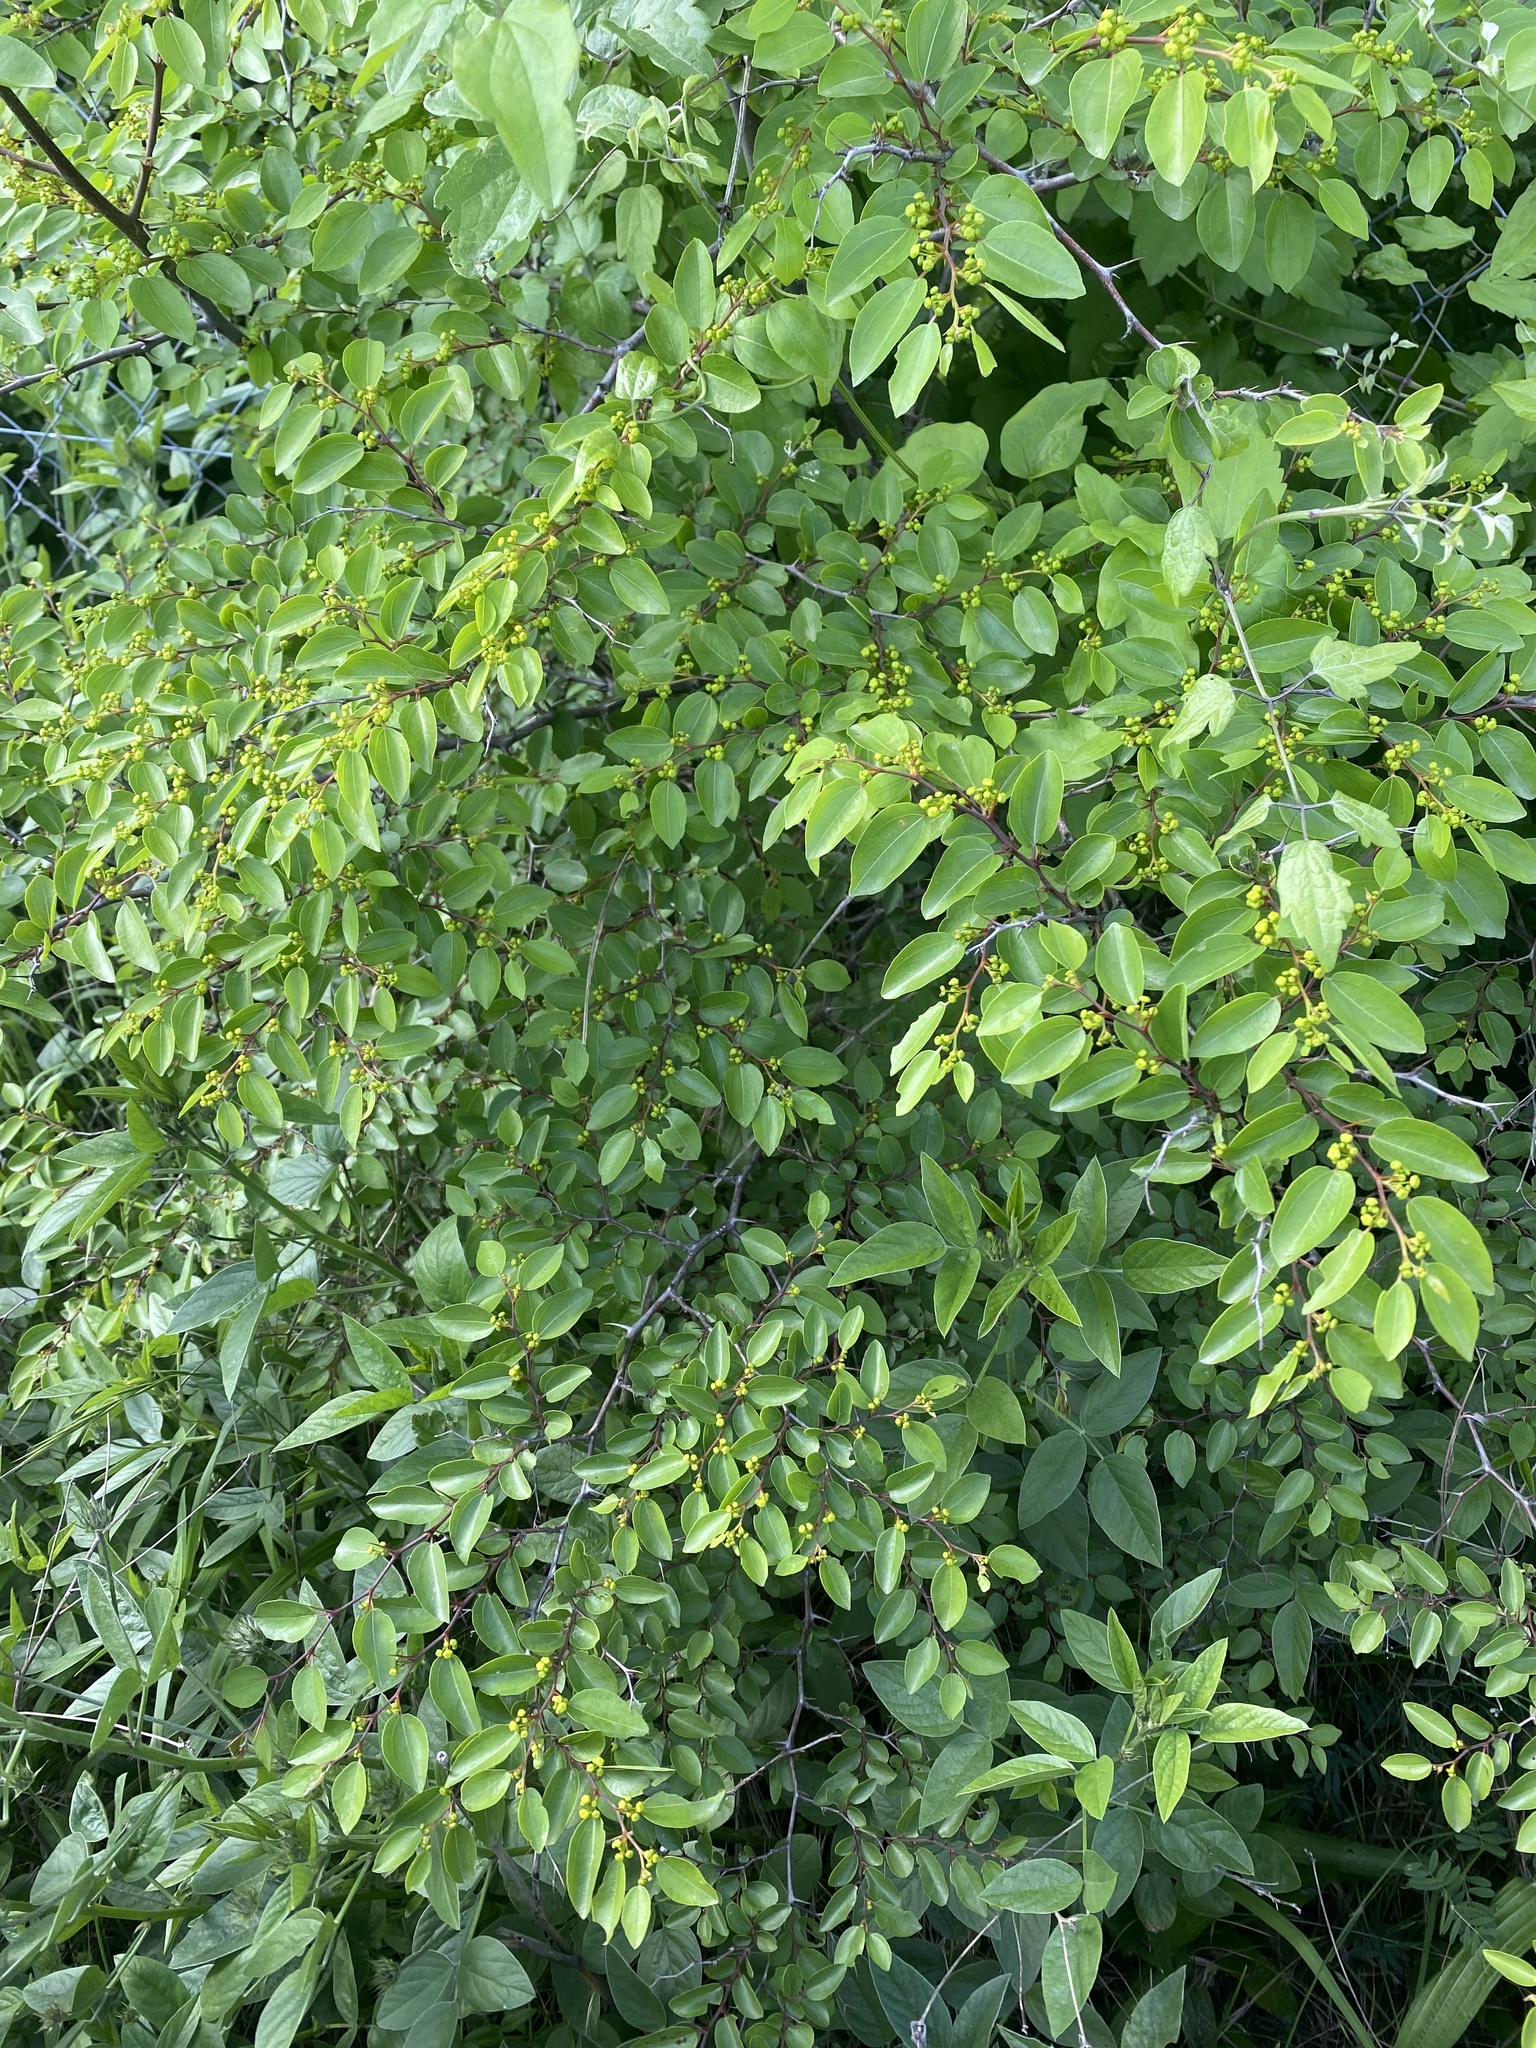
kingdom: Plantae
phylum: Tracheophyta
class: Magnoliopsida
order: Rosales
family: Rhamnaceae
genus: Paliurus
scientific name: Paliurus spina-christi
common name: Jeruselem thorn
